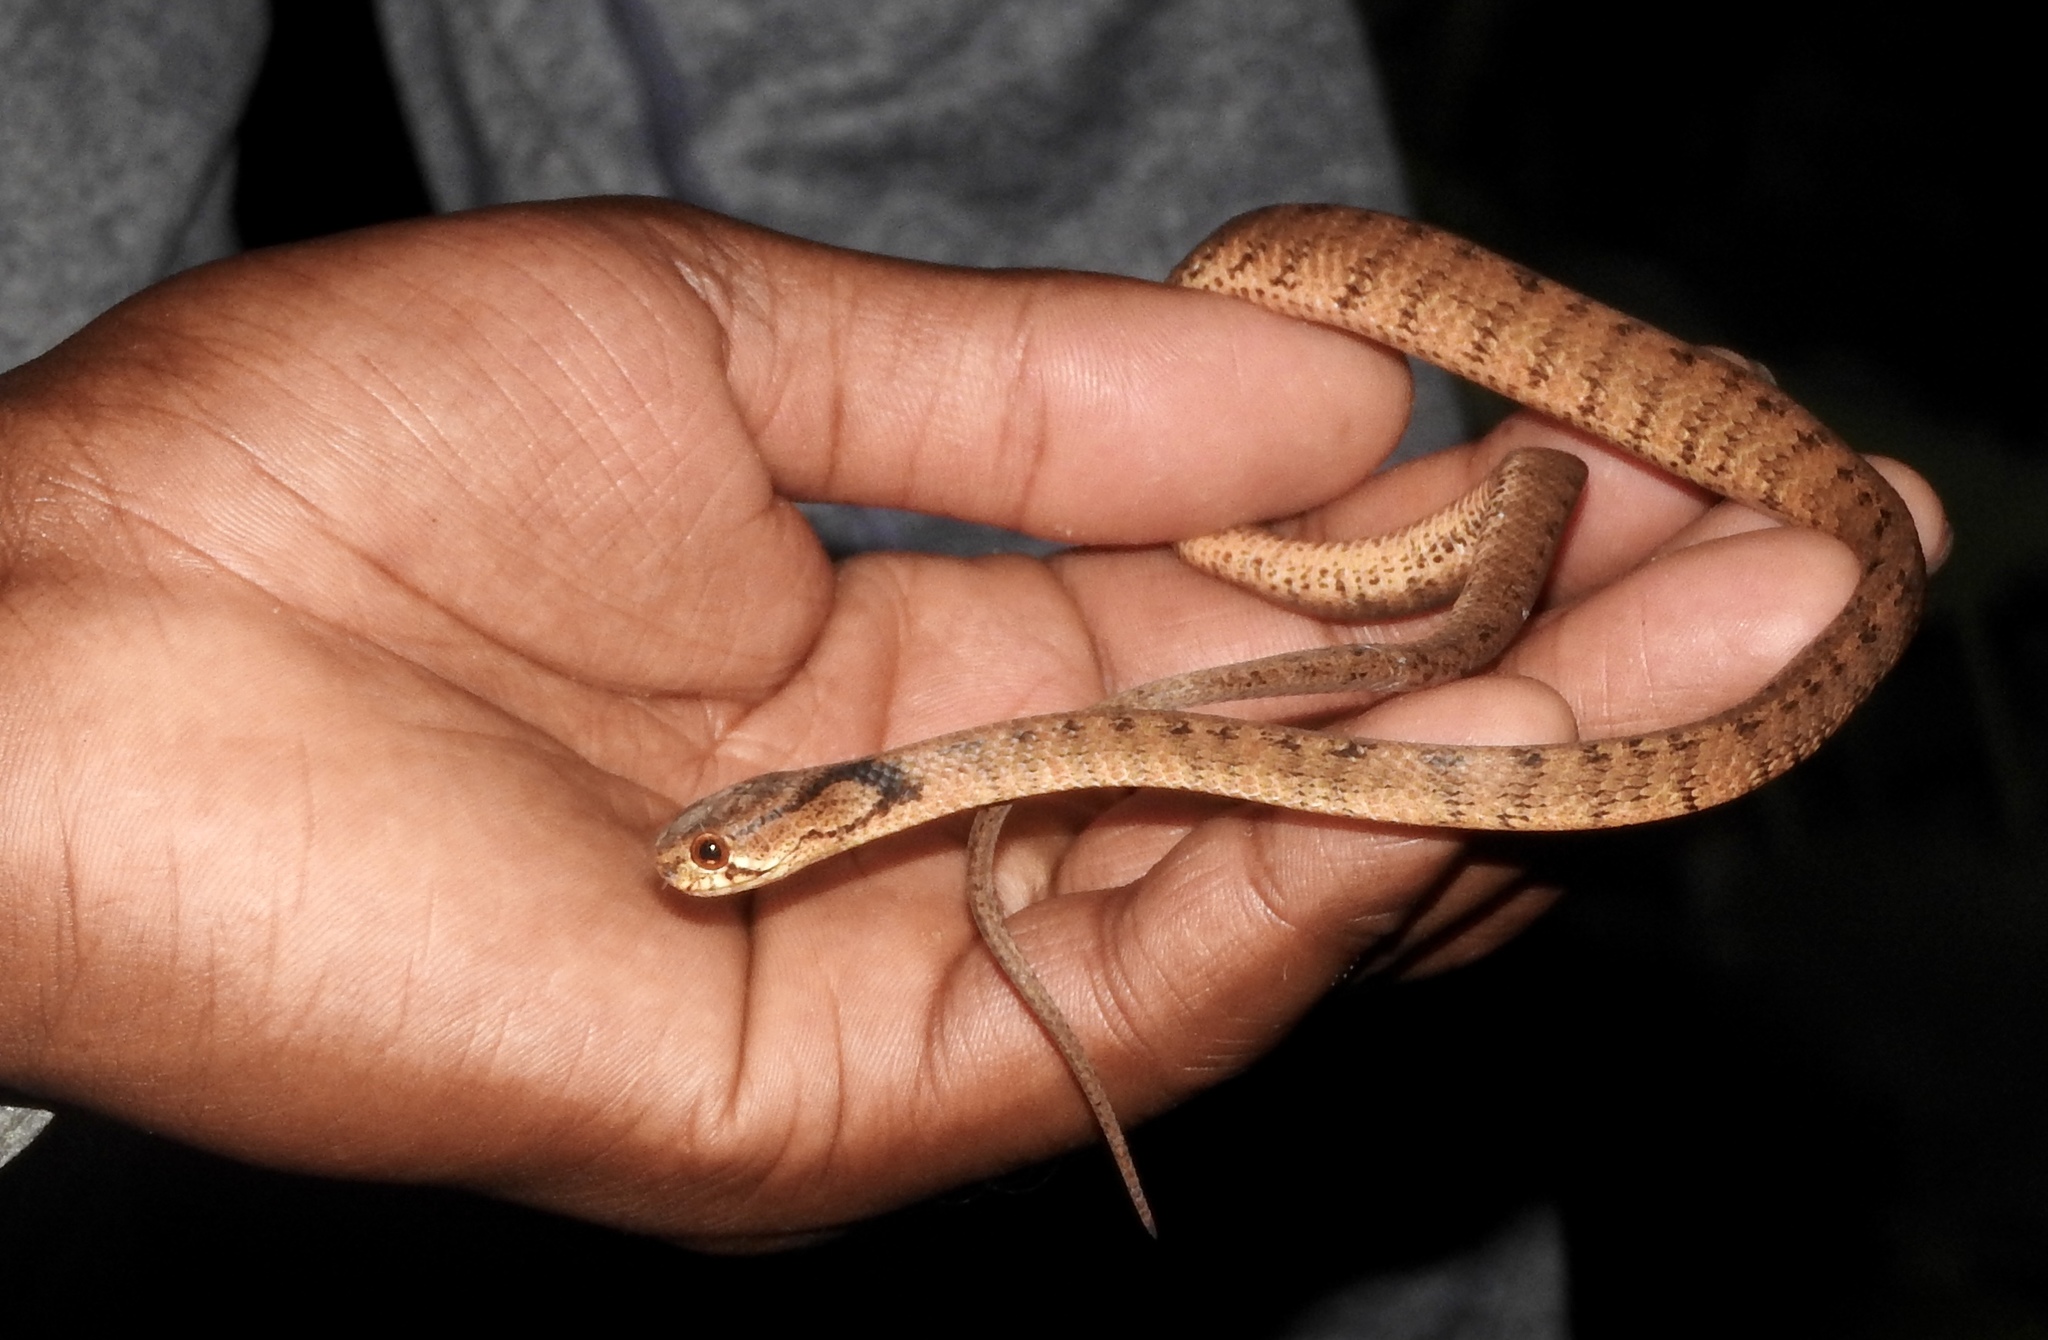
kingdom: Animalia
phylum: Chordata
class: Squamata
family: Pareidae
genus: Pareas
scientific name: Pareas carinatus
